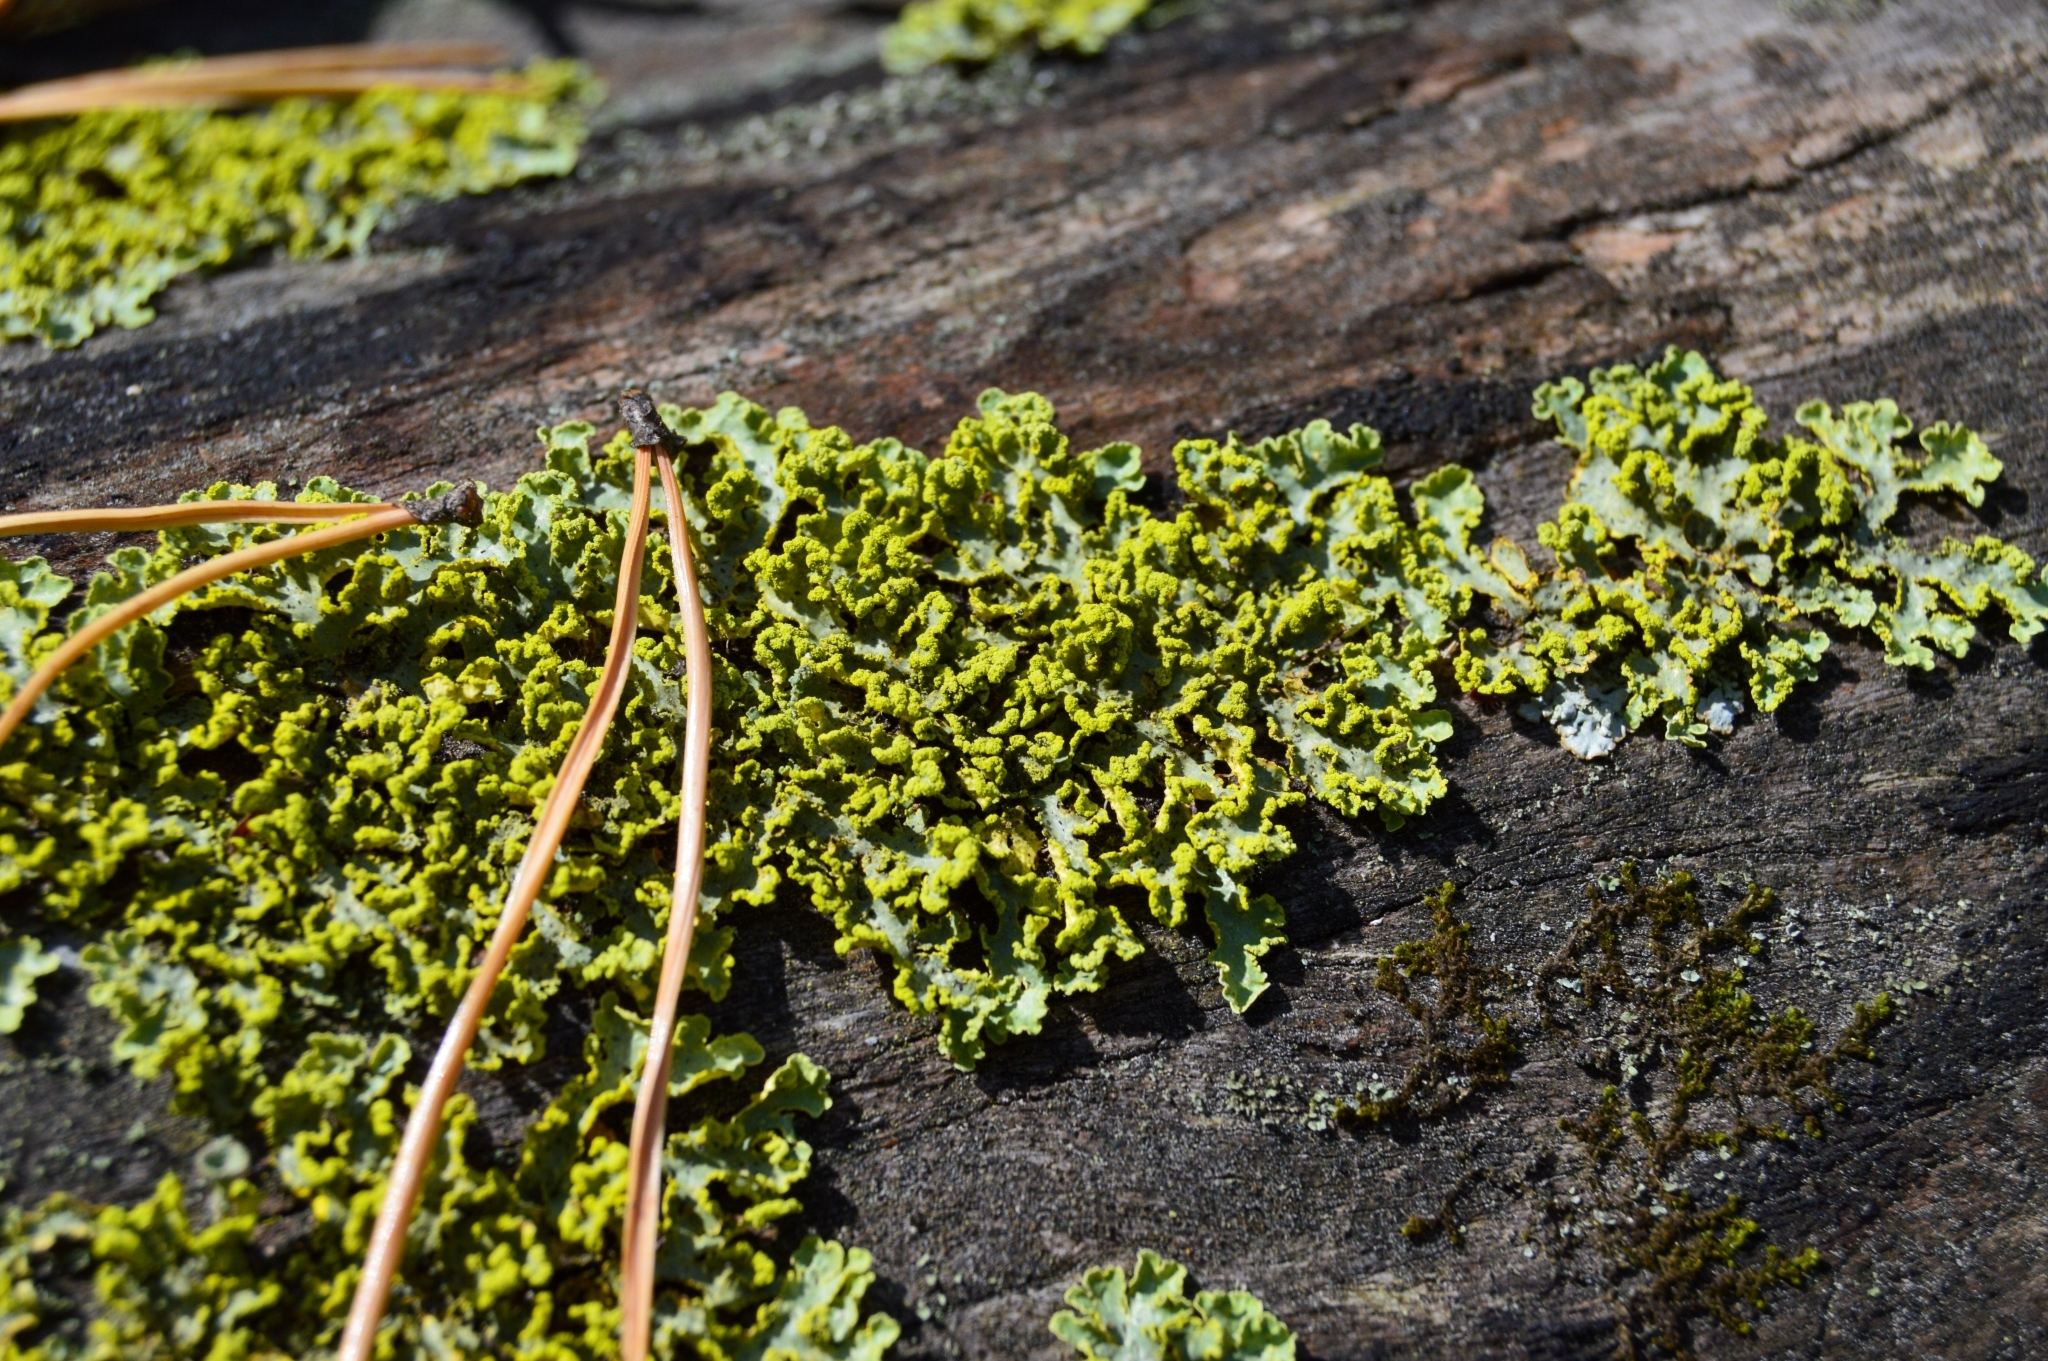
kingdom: Fungi
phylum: Ascomycota
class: Lecanoromycetes
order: Lecanorales
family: Parmeliaceae
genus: Vulpicida
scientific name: Vulpicida pinastri
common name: Powdered sunshine lichen
